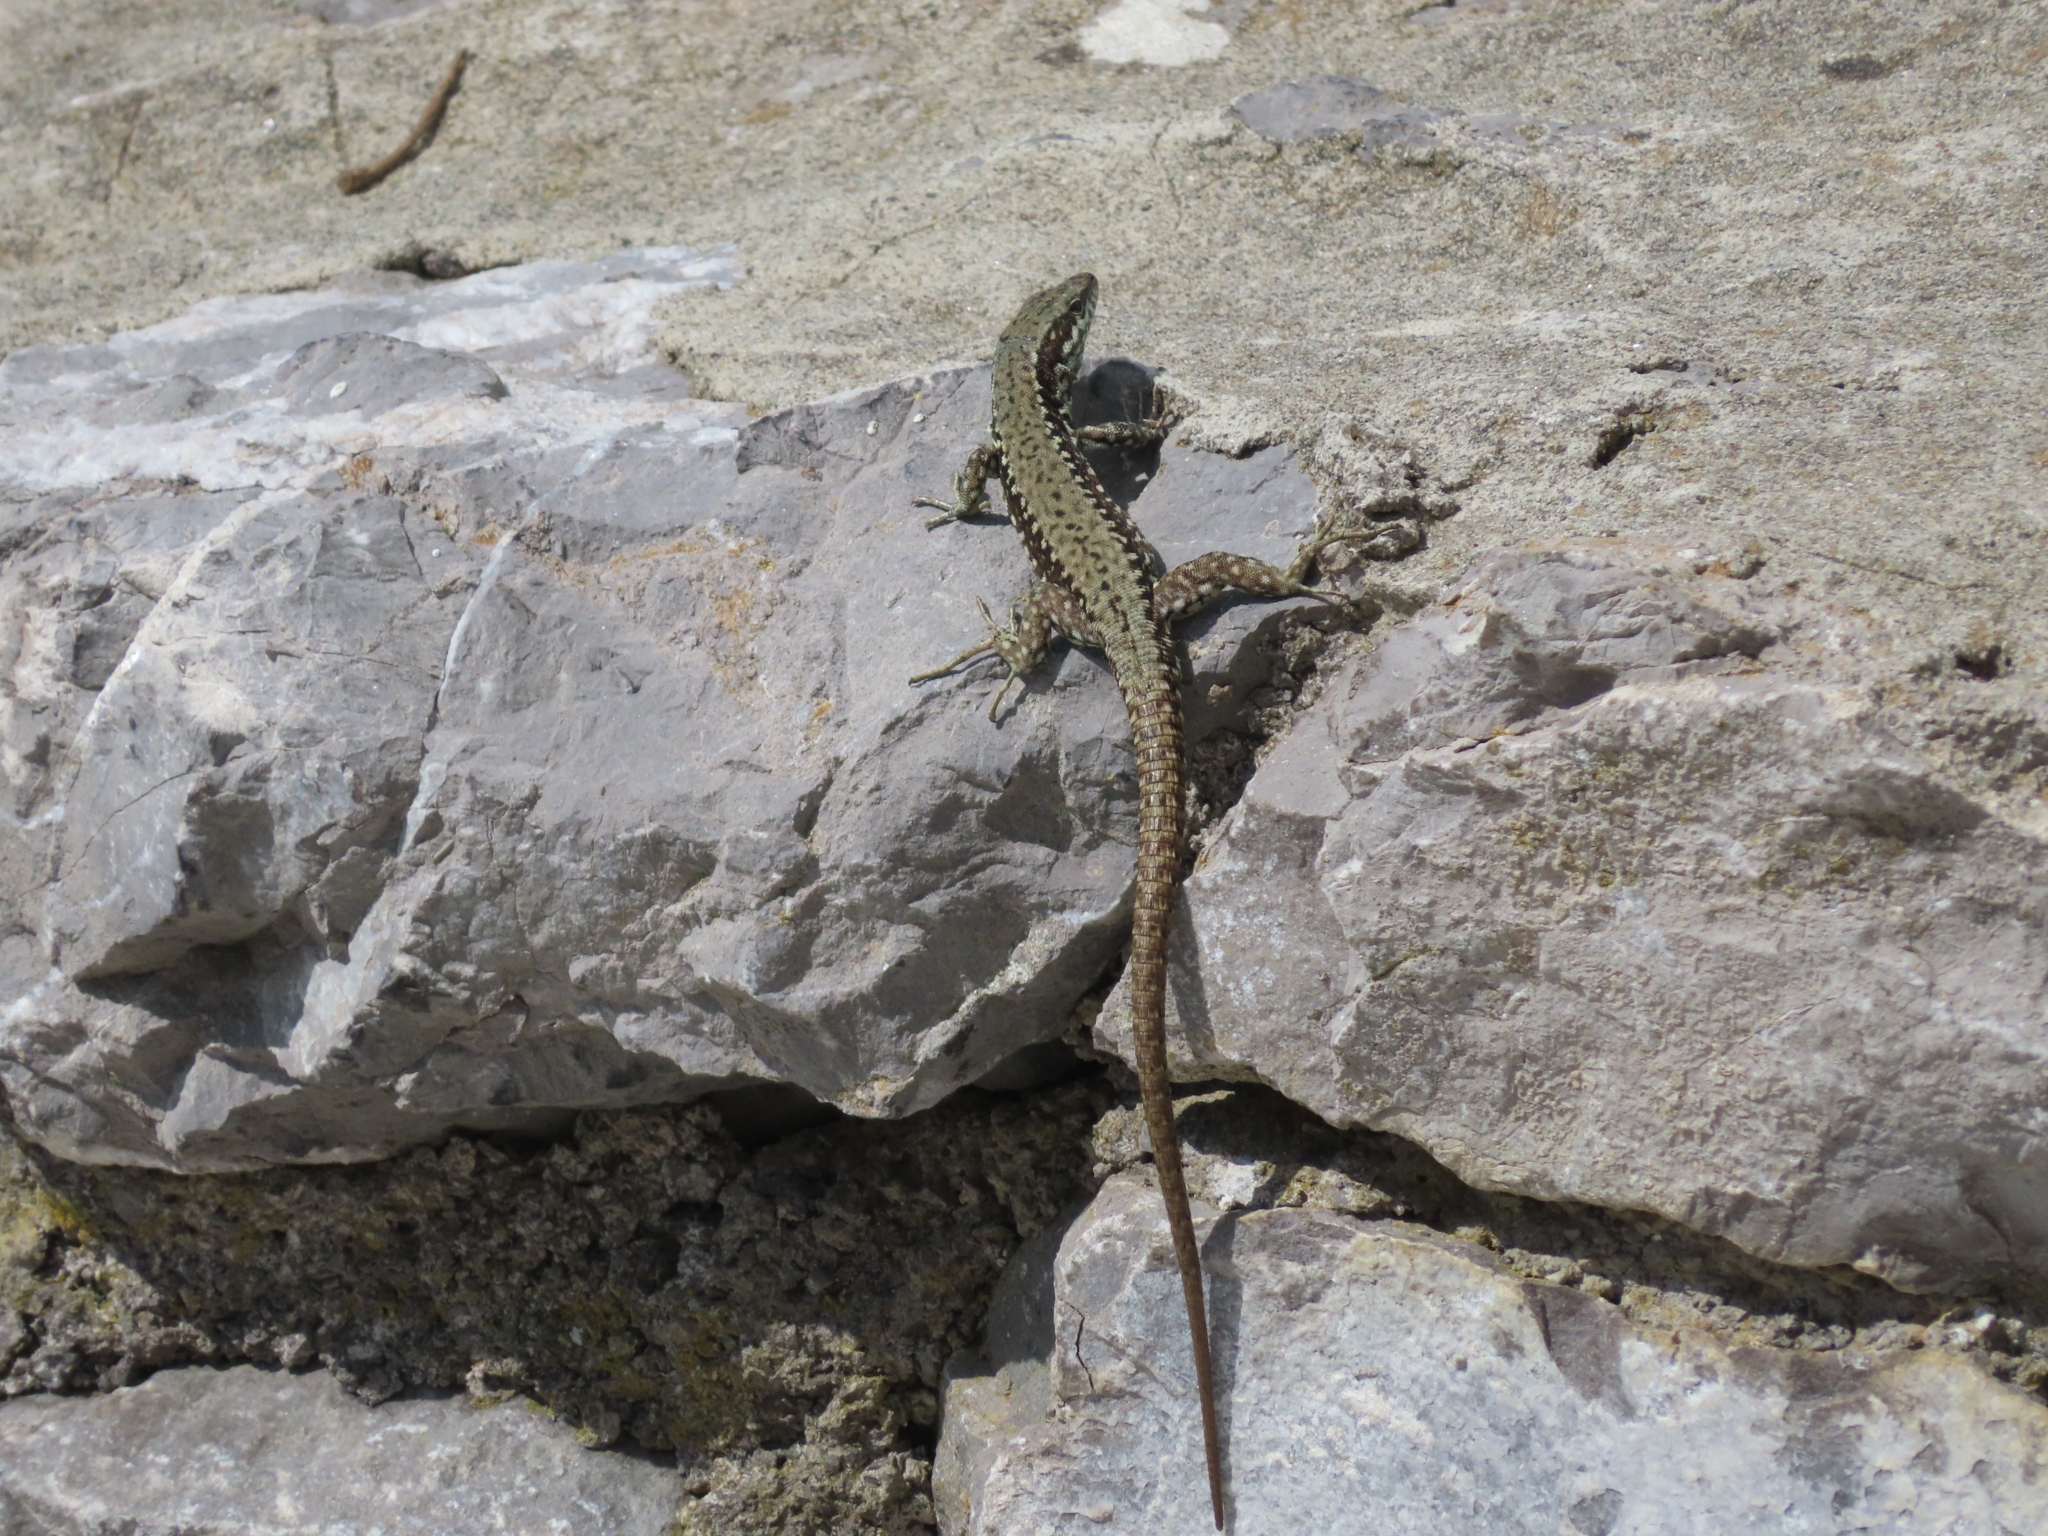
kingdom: Animalia
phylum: Chordata
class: Squamata
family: Lacertidae
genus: Podarcis
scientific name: Podarcis muralis
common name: Common wall lizard
